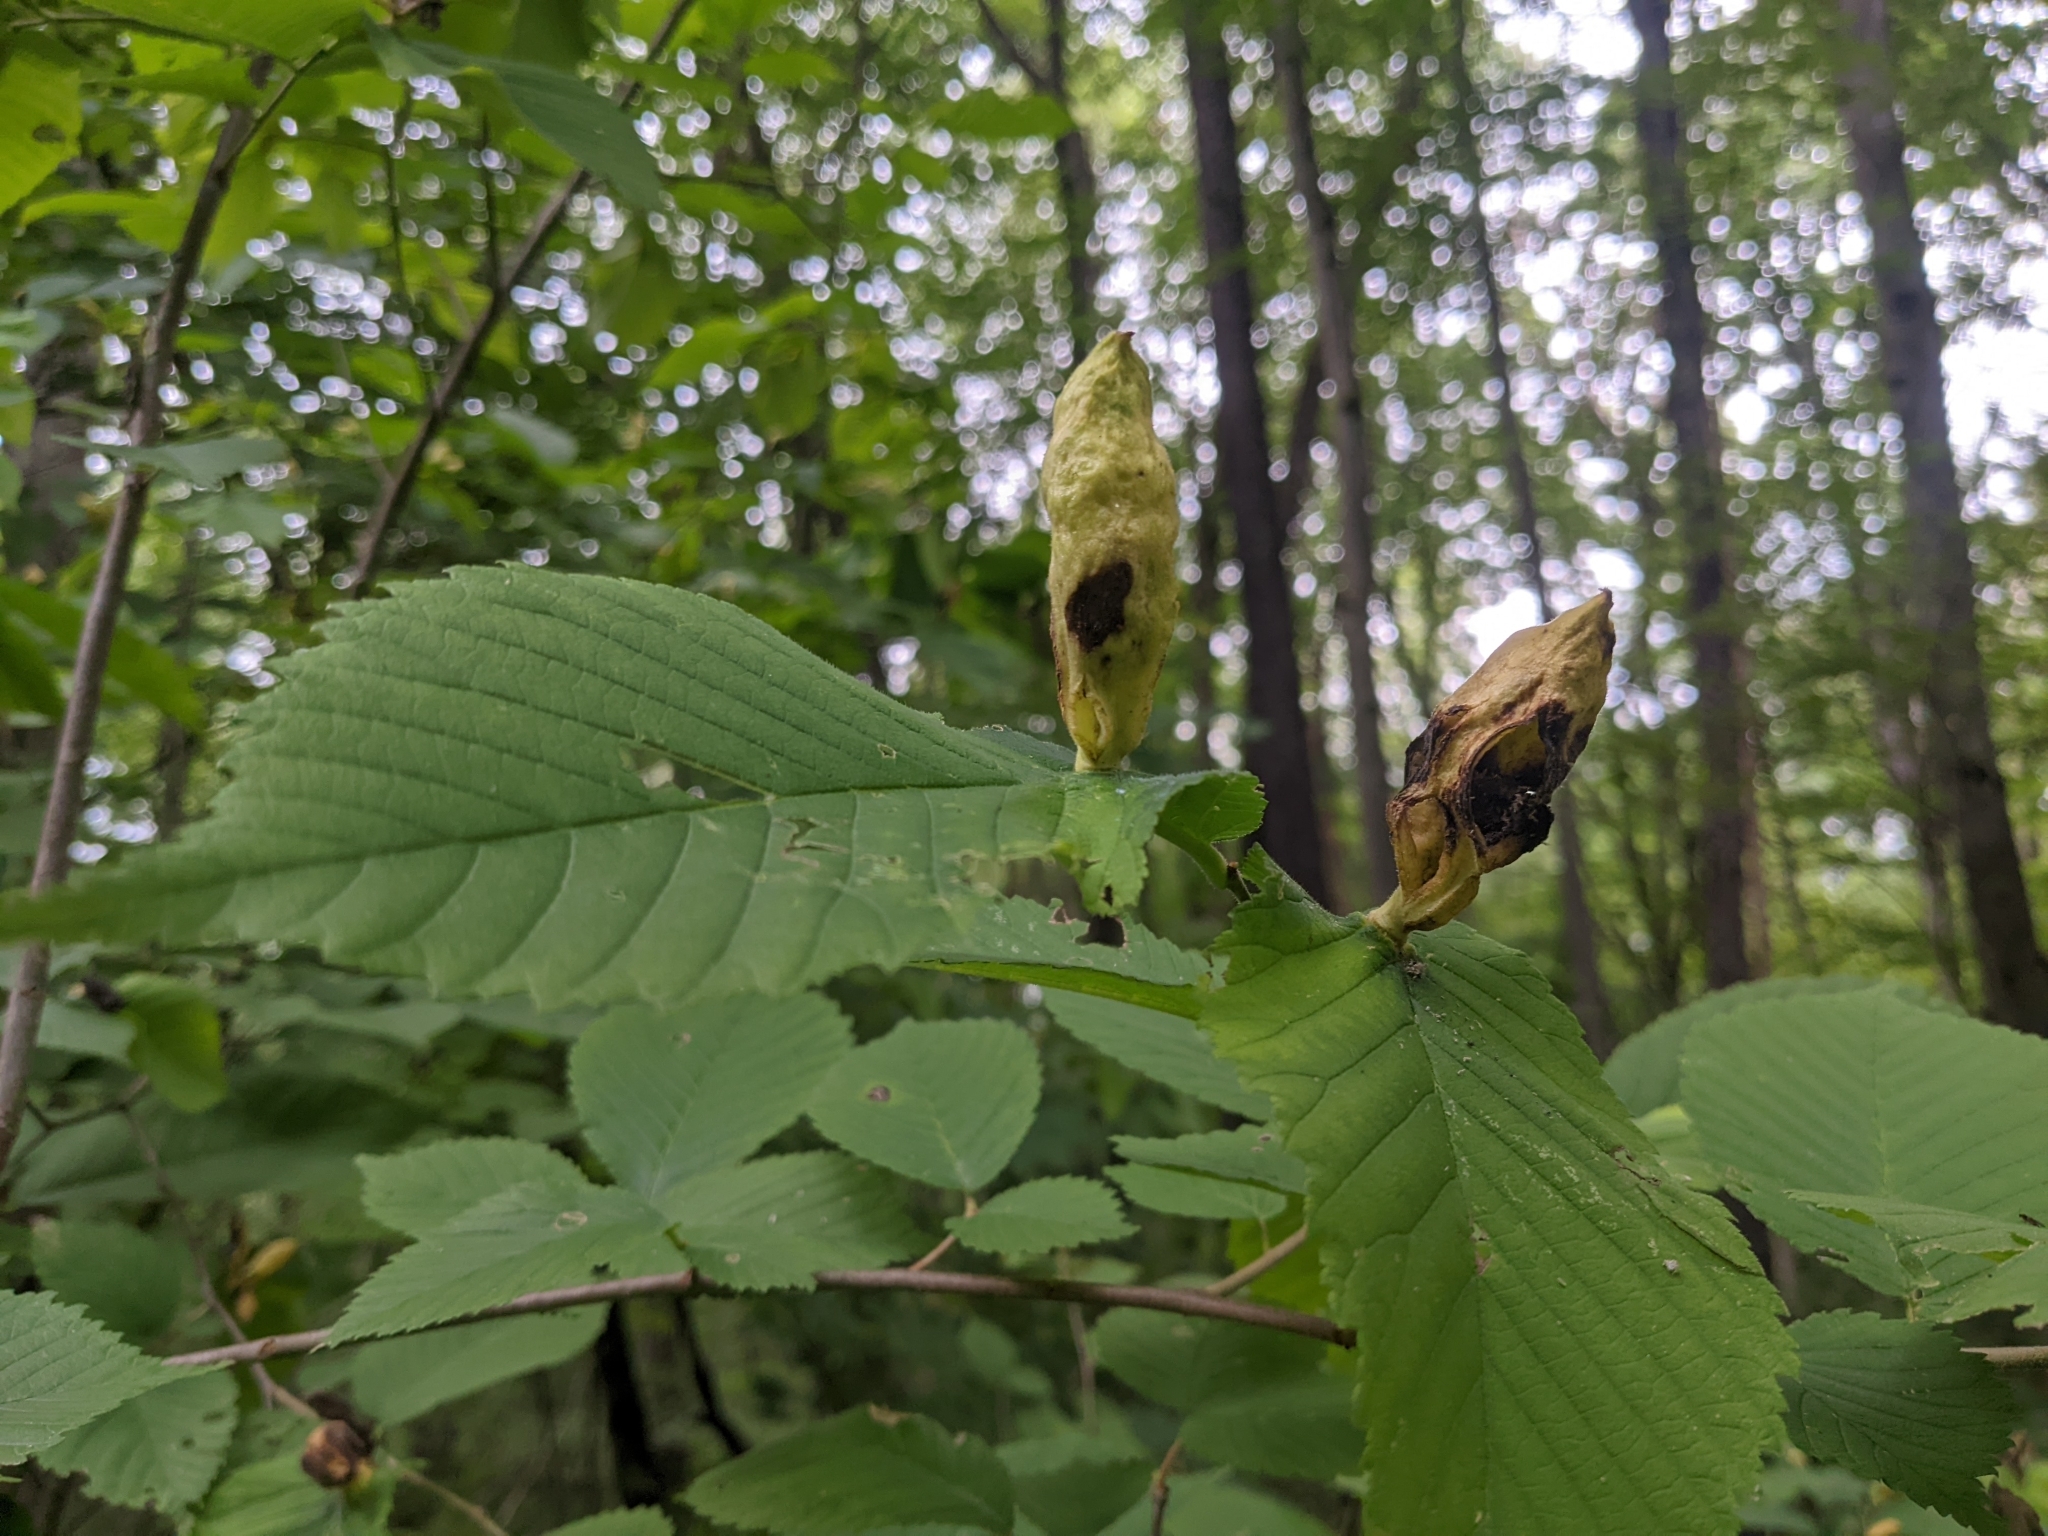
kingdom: Animalia
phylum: Arthropoda
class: Insecta
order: Hemiptera
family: Aphididae
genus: Kaltenbachiella
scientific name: Kaltenbachiella ulmifusa
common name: Elm pouchgall aphid
